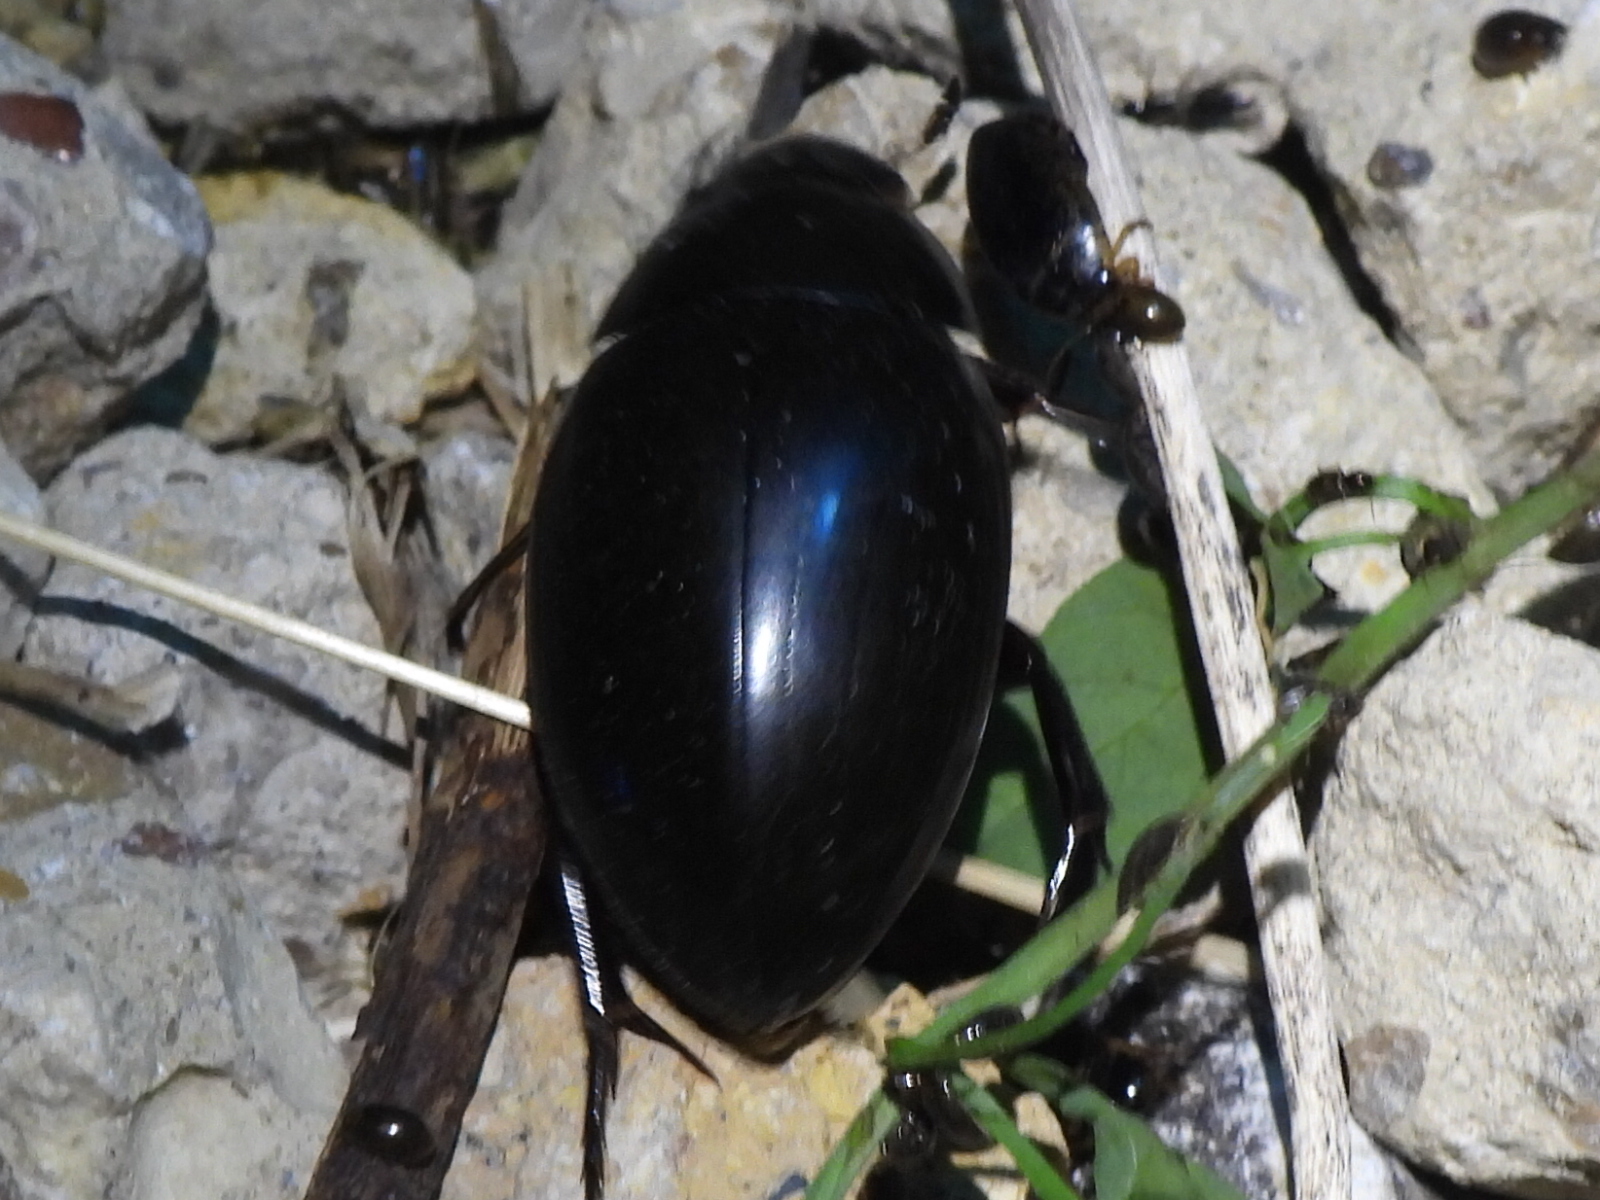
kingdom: Animalia
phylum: Arthropoda
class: Insecta
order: Coleoptera
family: Hydrophilidae
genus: Hydrophilus
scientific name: Hydrophilus ovatus
